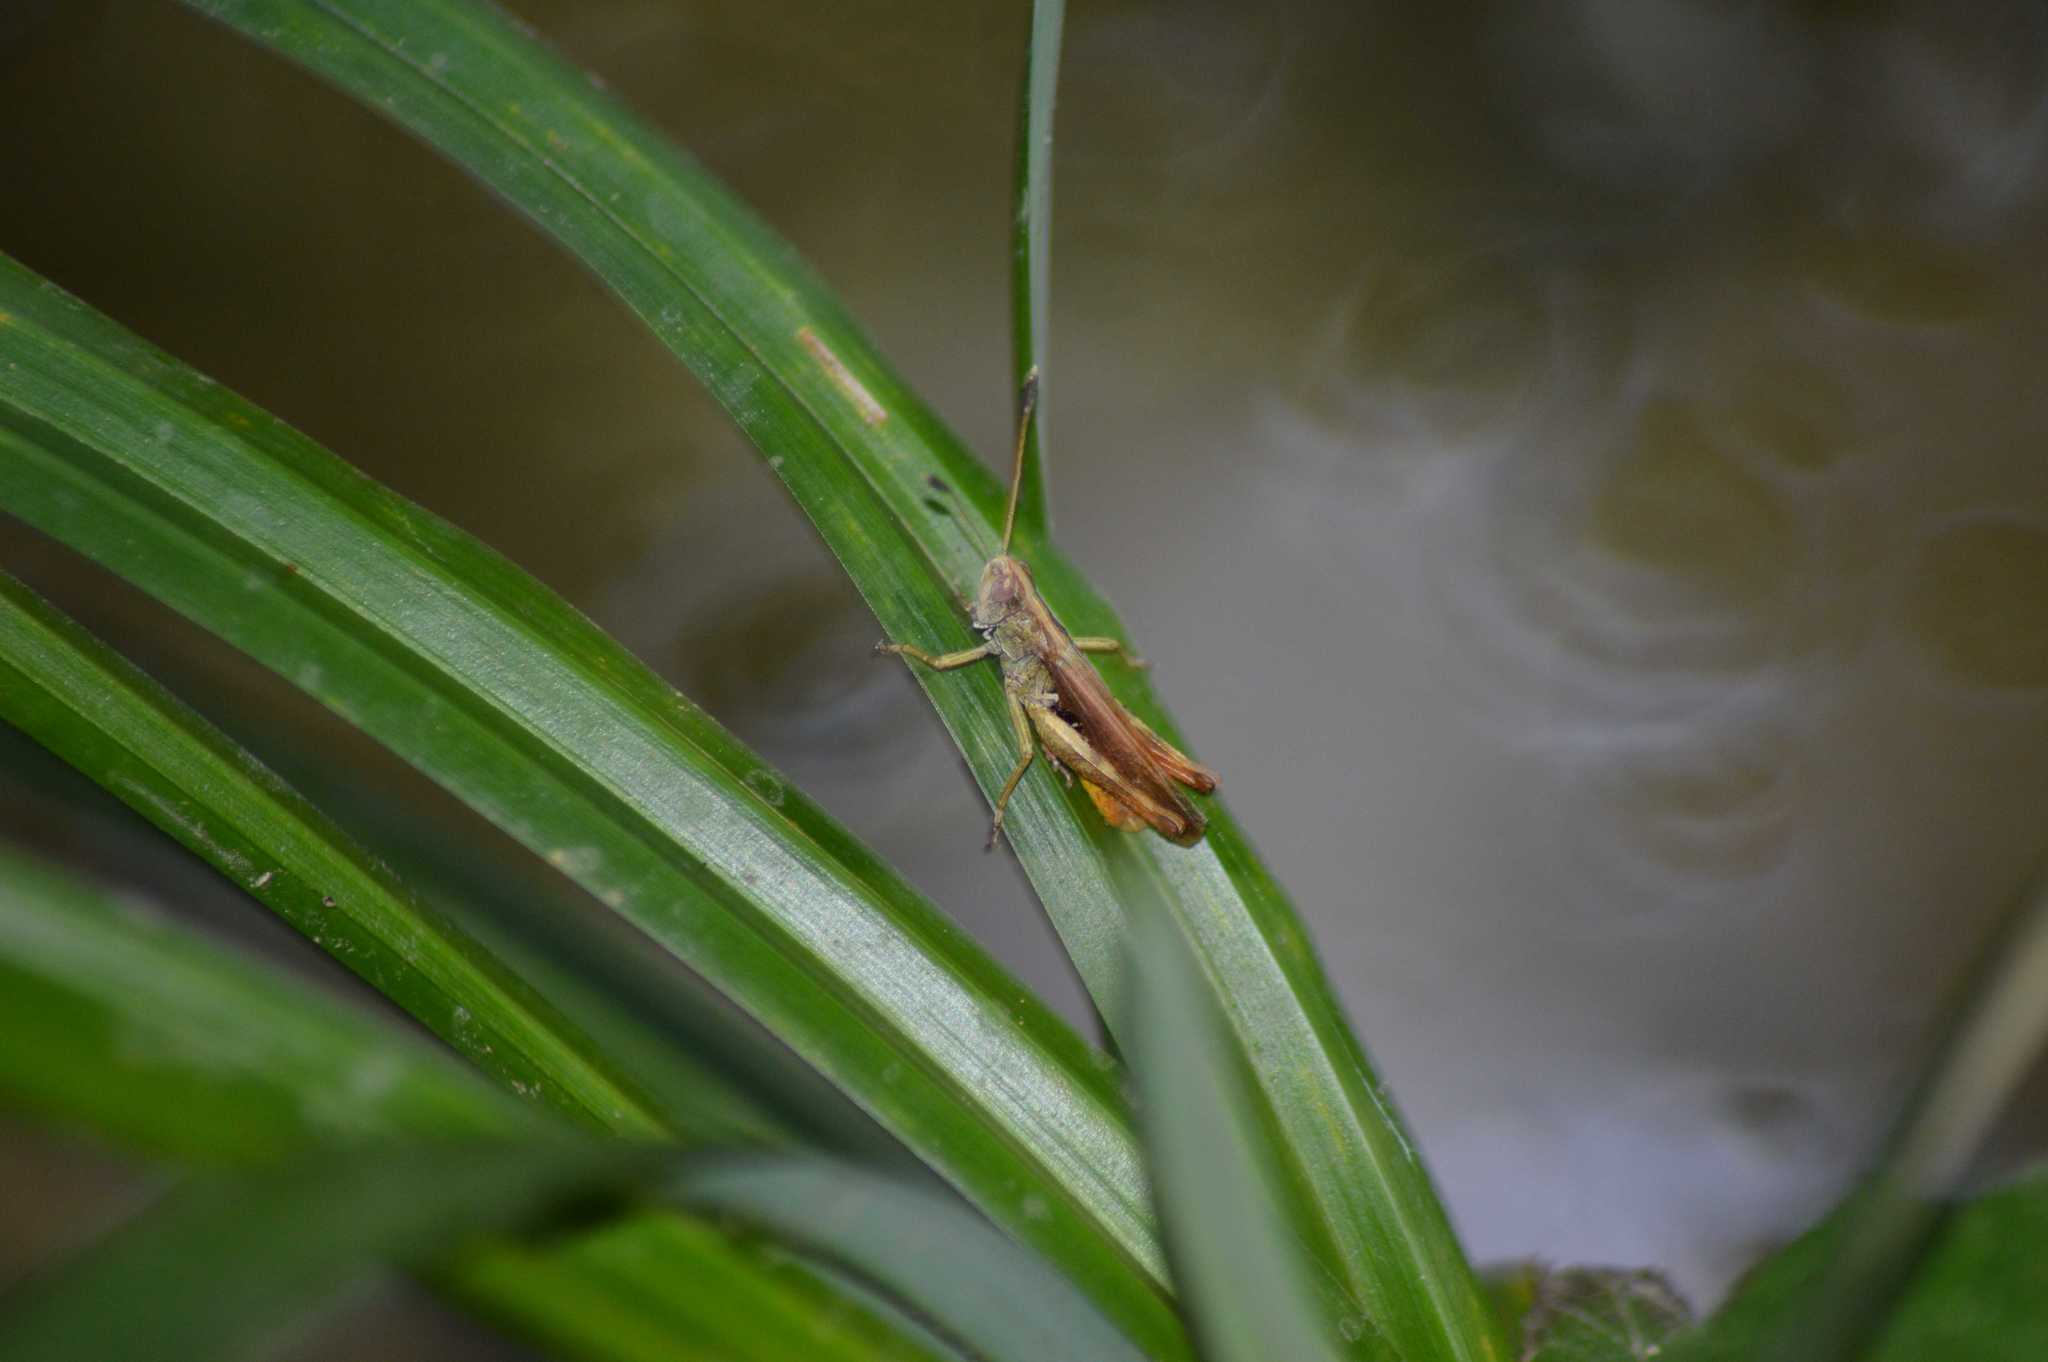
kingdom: Animalia
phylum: Arthropoda
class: Insecta
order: Orthoptera
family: Acrididae
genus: Gomphocerippus
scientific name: Gomphocerippus rufus
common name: Rufous grasshopper
